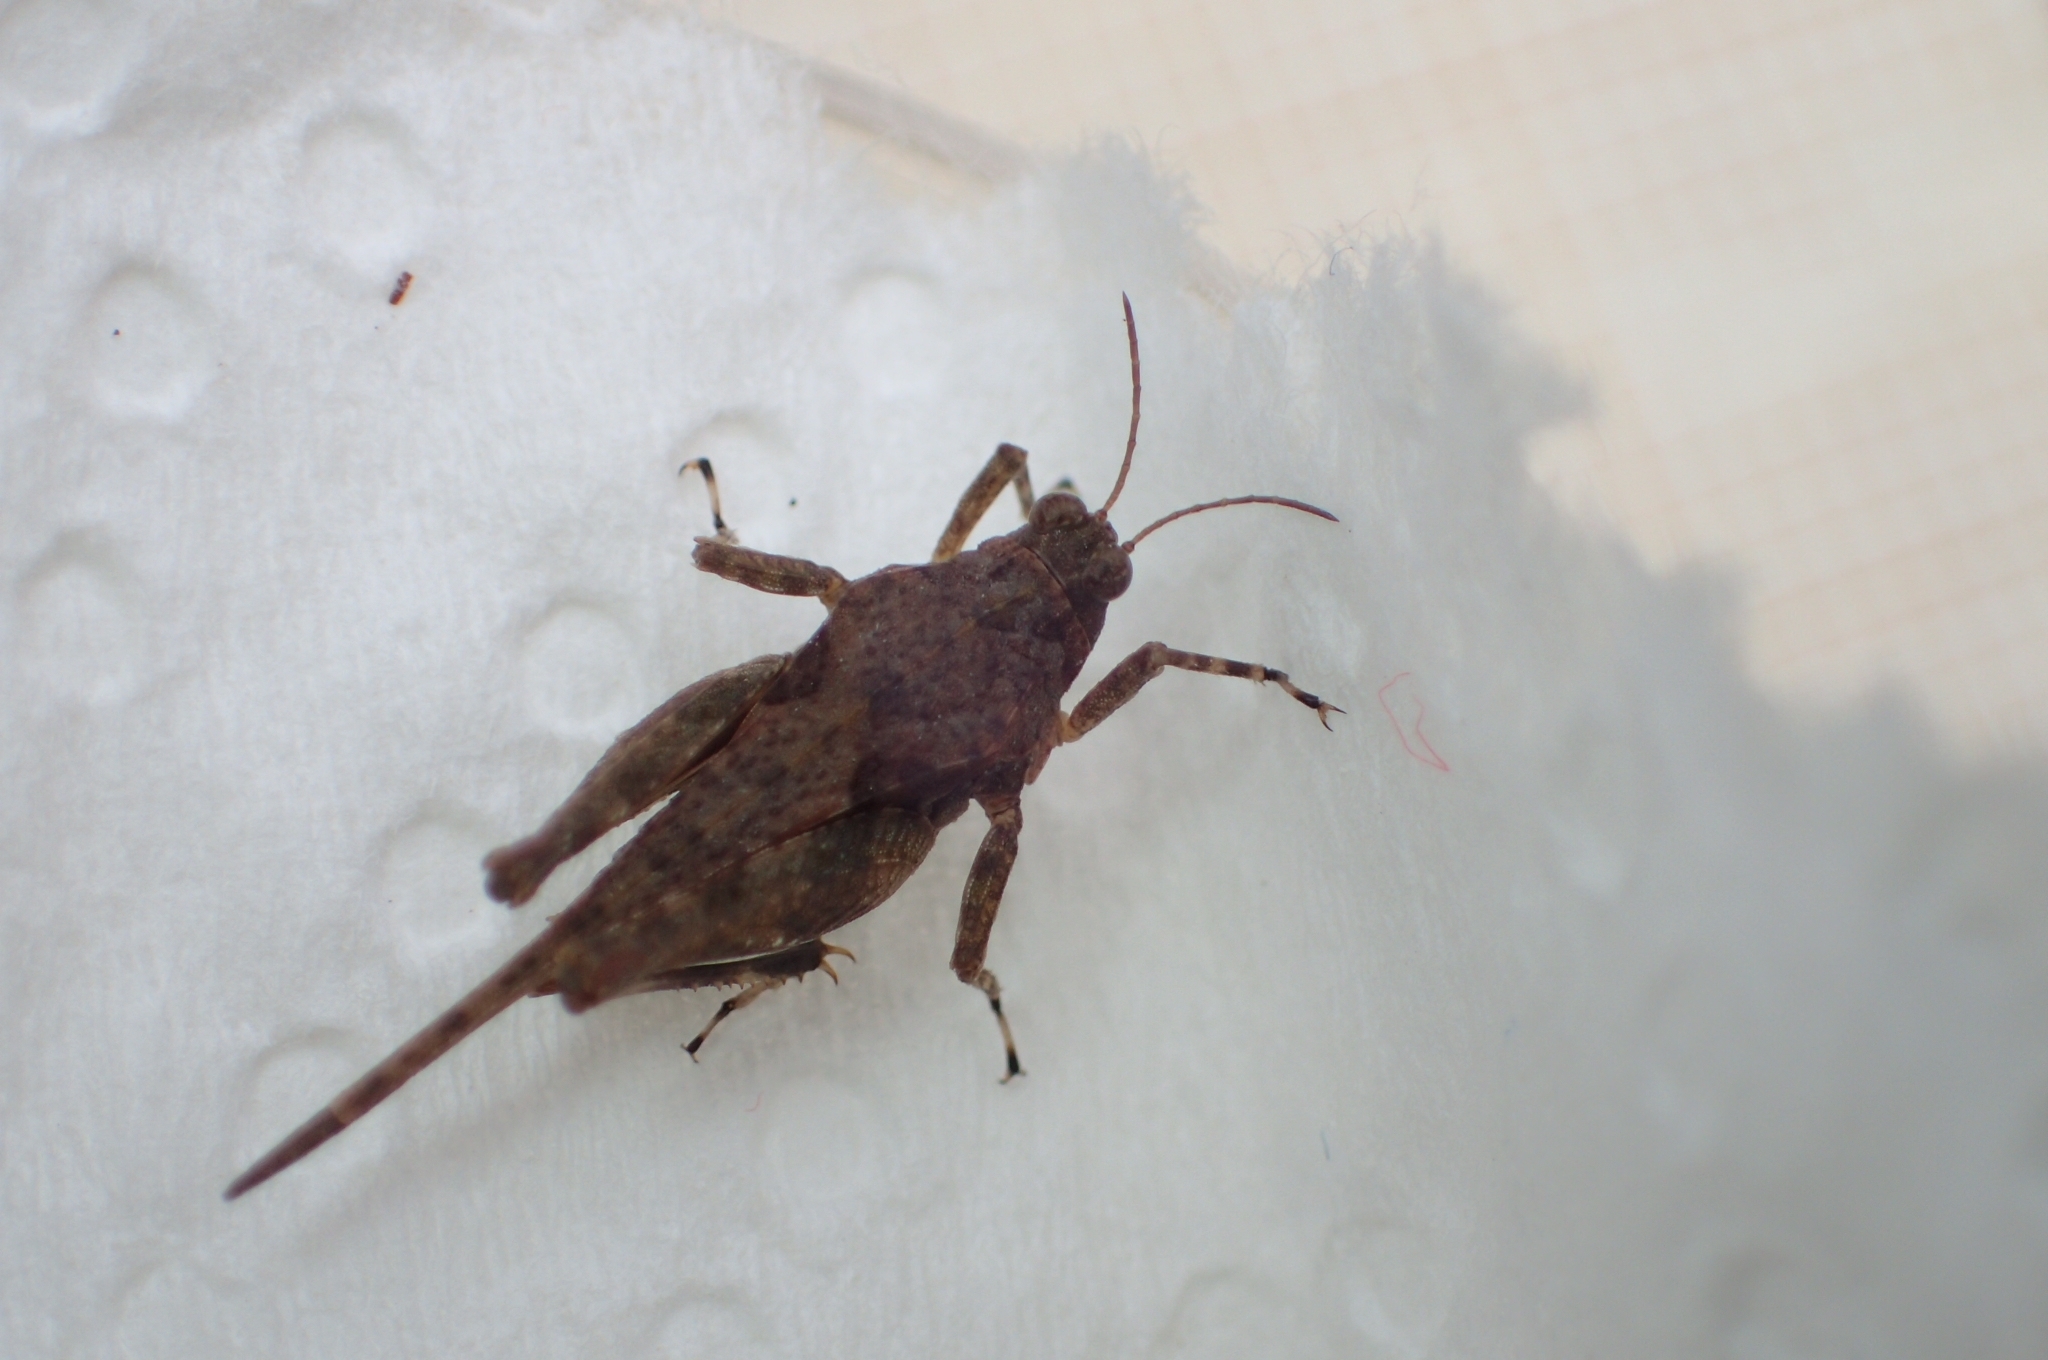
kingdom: Animalia
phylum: Arthropoda
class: Insecta
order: Orthoptera
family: Tetrigidae
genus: Paratettix
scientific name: Paratettix meridionalis
